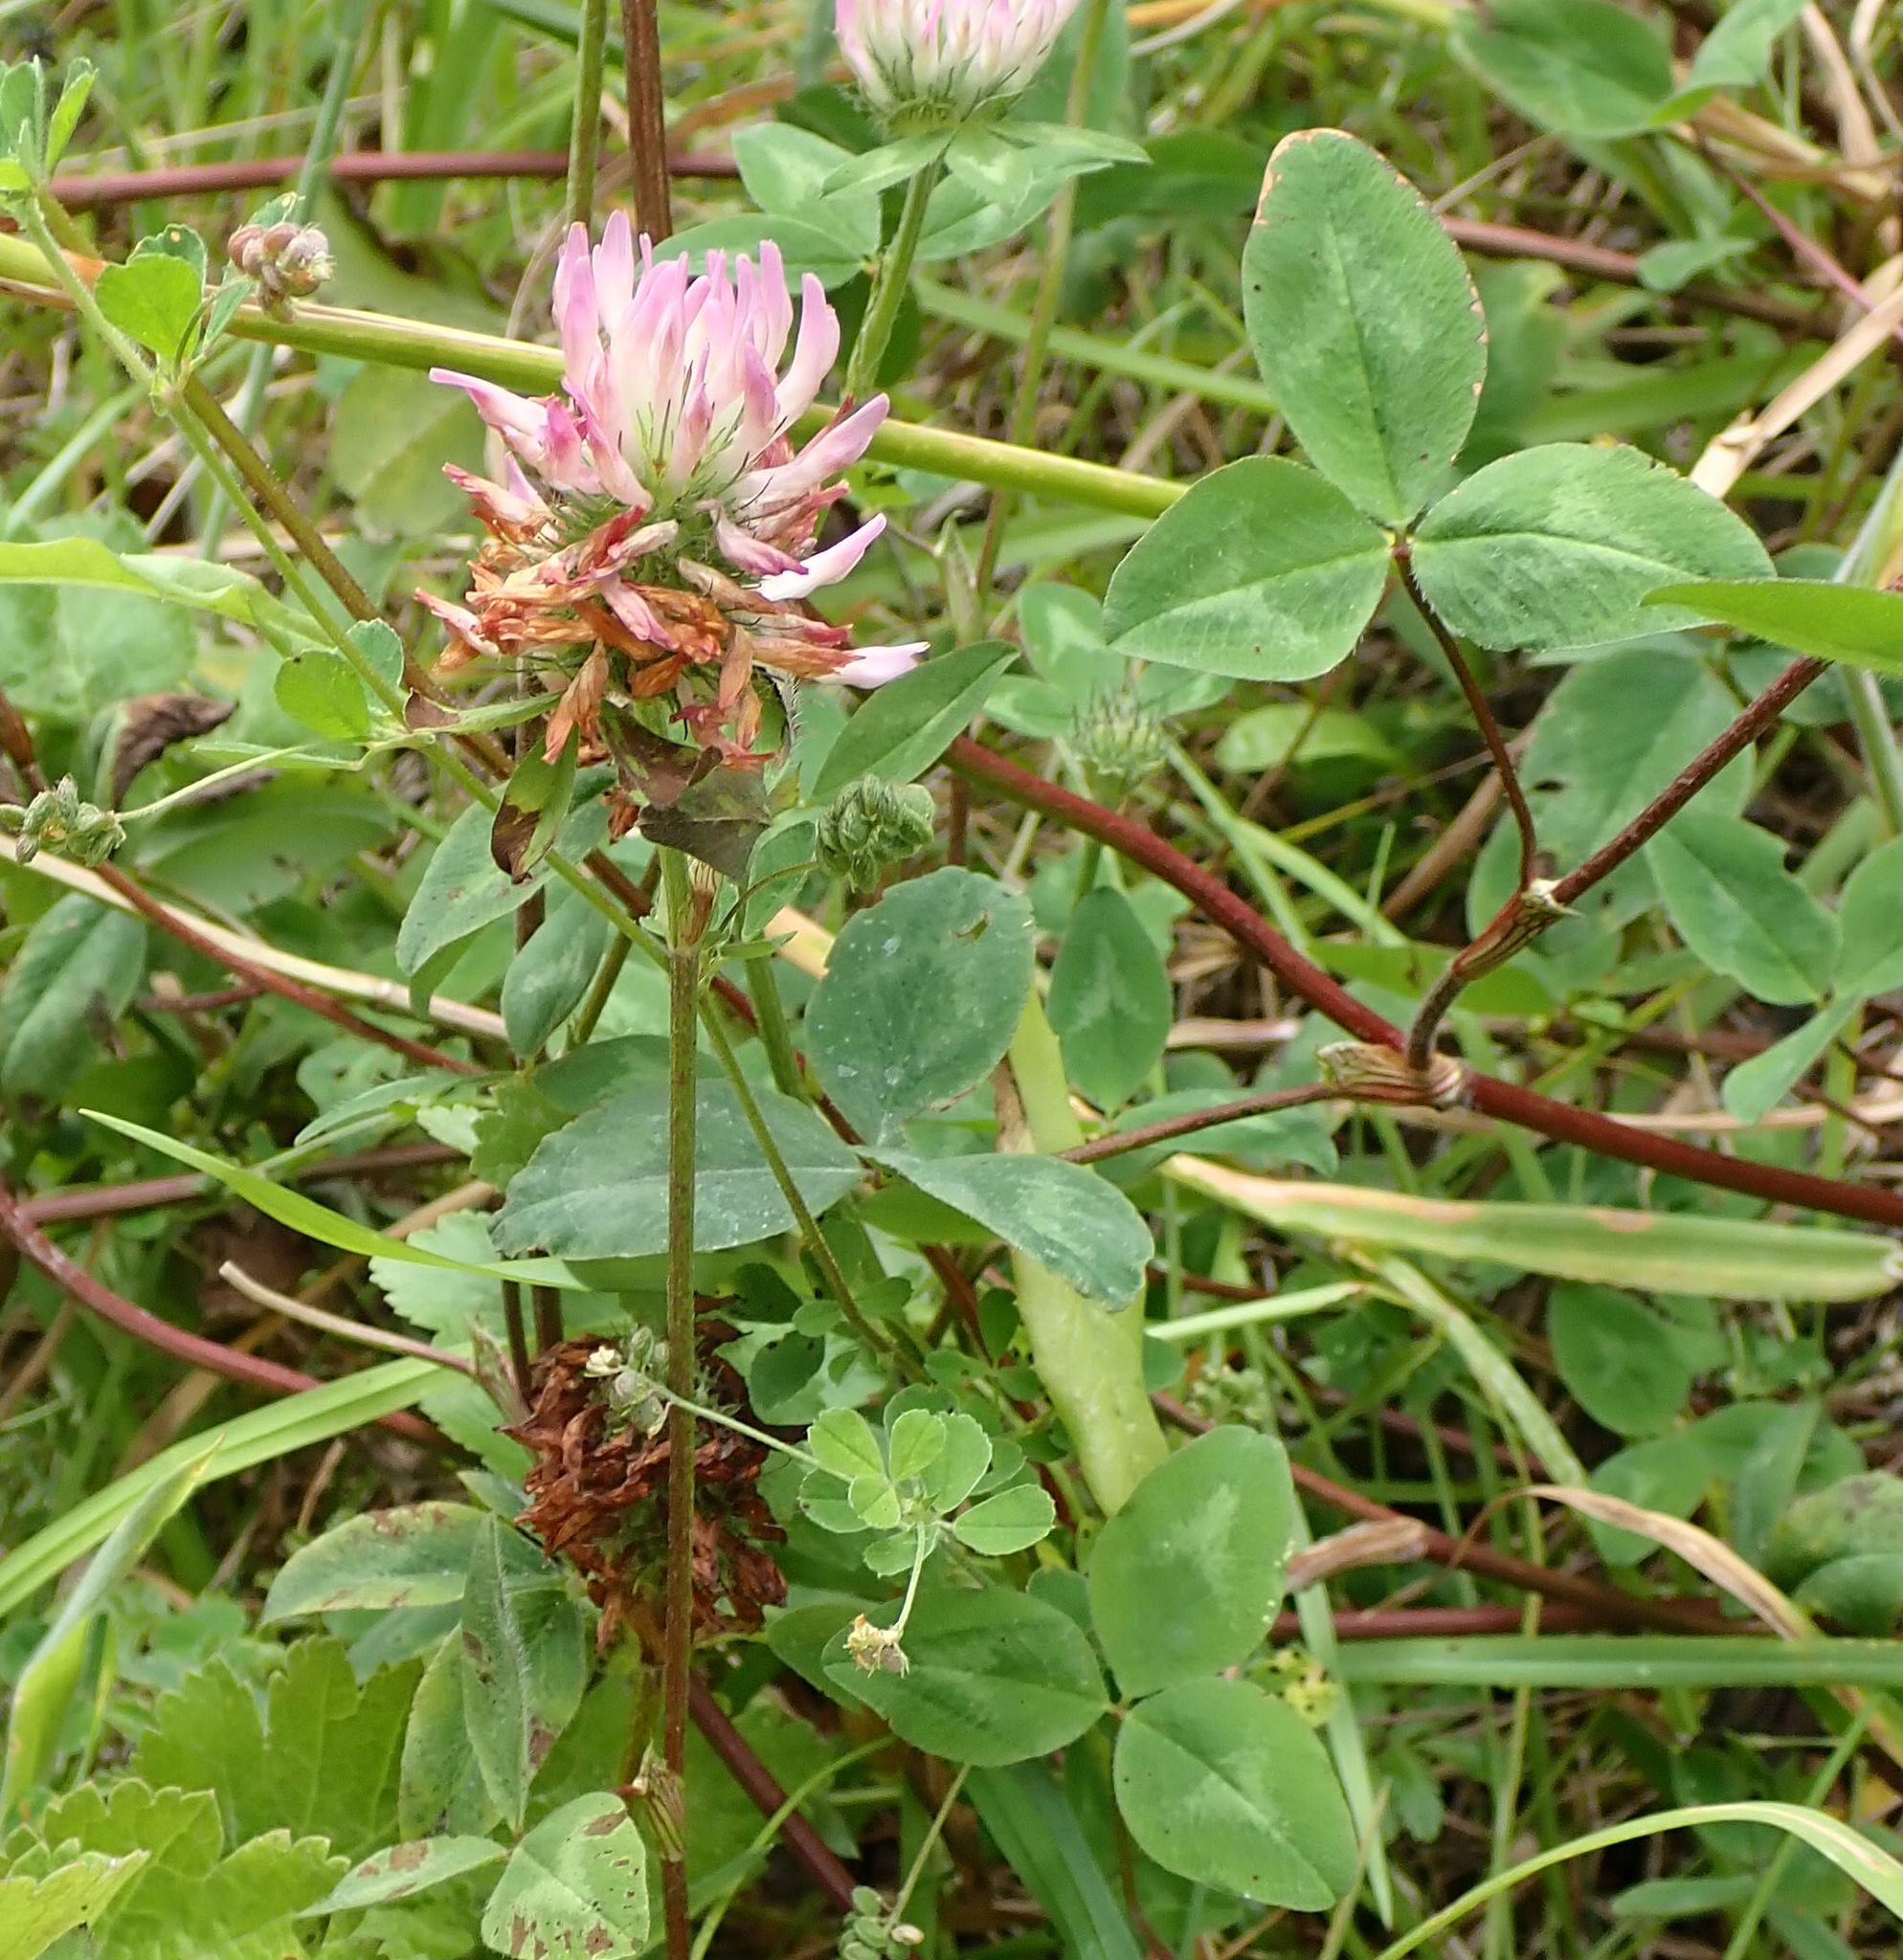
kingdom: Plantae
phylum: Tracheophyta
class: Magnoliopsida
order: Fabales
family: Fabaceae
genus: Trifolium
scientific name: Trifolium pratense
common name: Red clover
